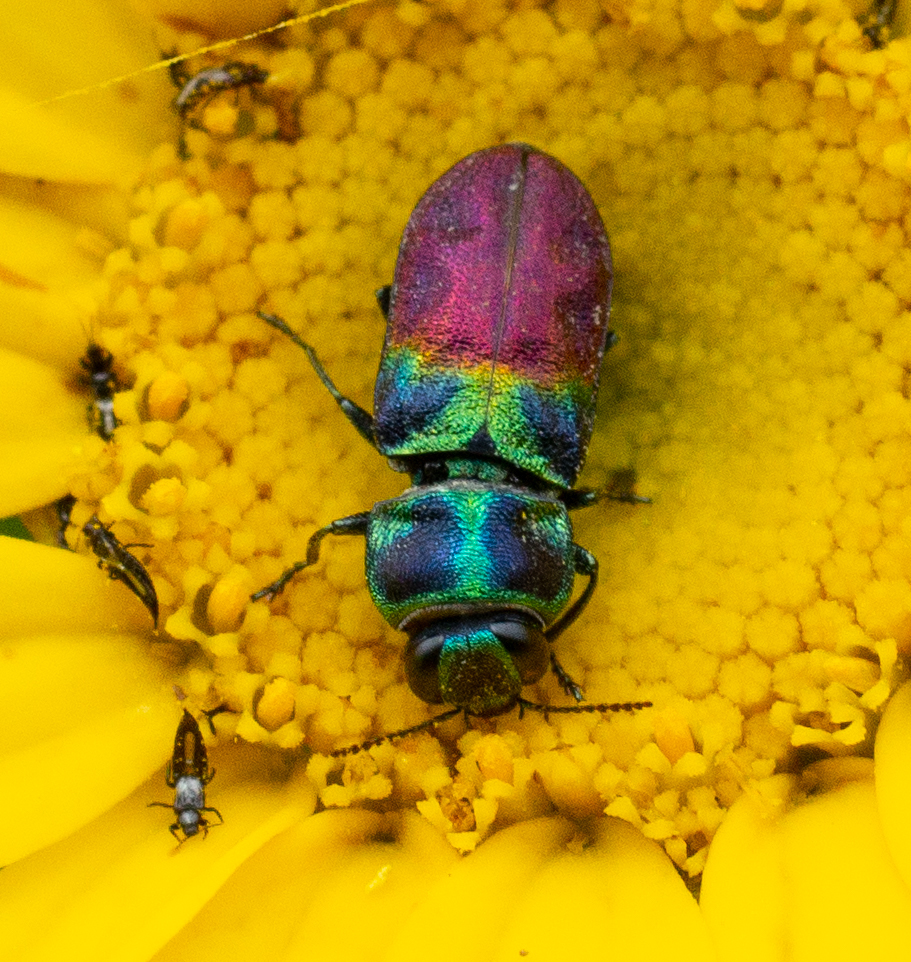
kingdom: Animalia
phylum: Arthropoda
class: Insecta
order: Coleoptera
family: Buprestidae
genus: Anthaxia
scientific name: Anthaxia dimidiata
